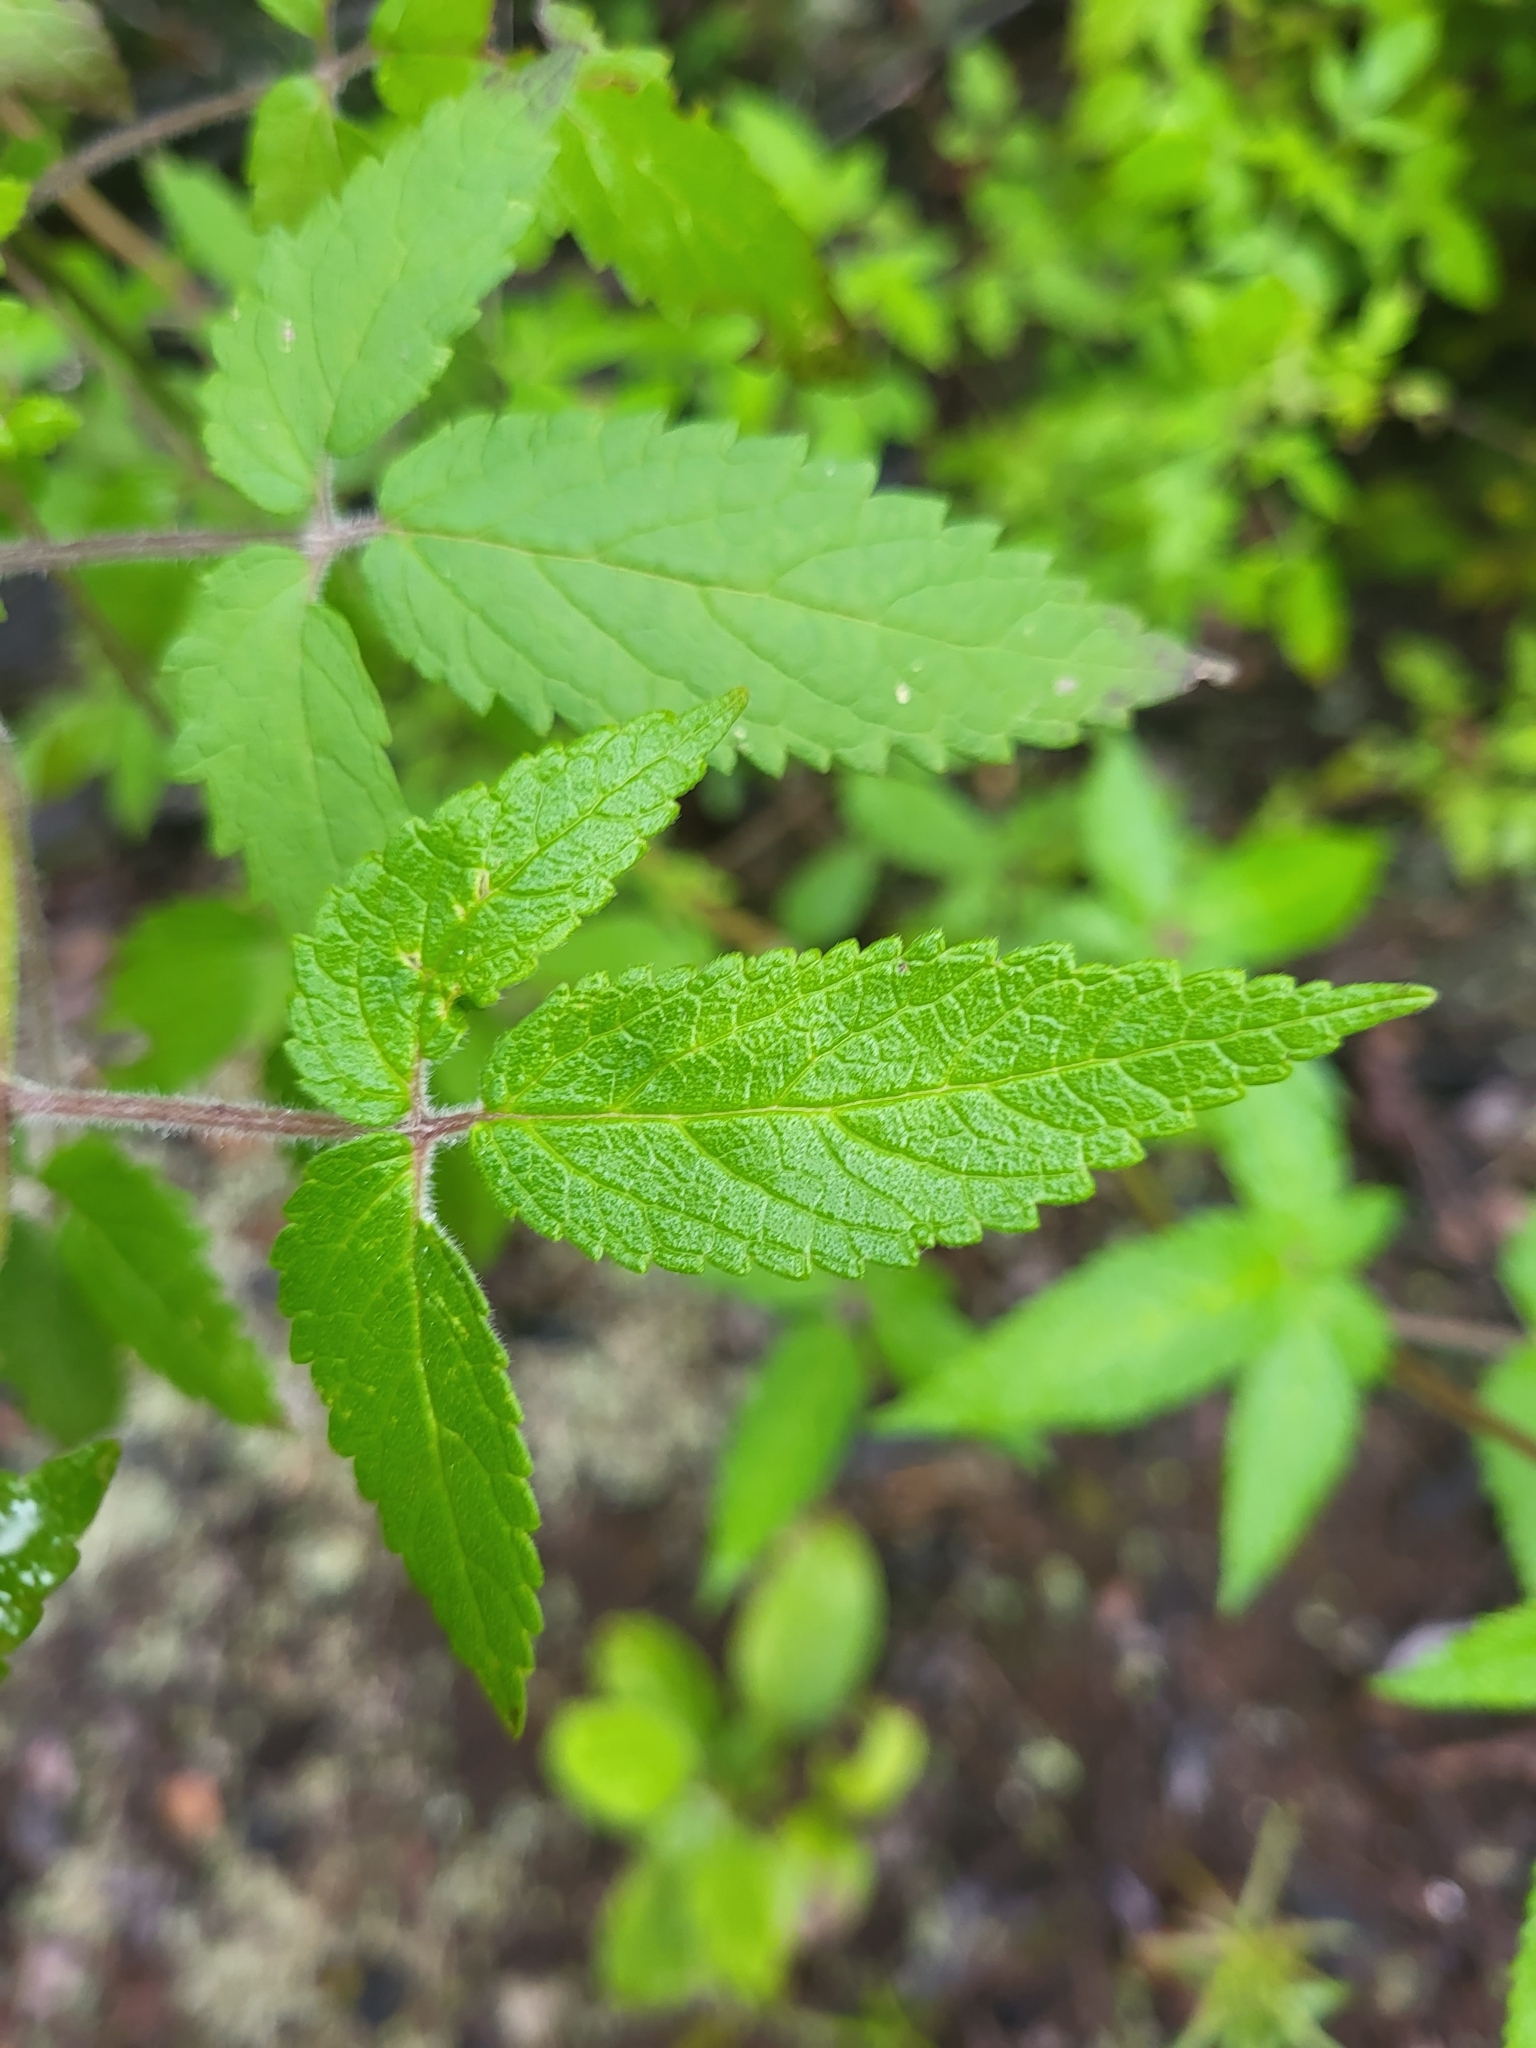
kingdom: Plantae
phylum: Tracheophyta
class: Magnoliopsida
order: Lamiales
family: Lamiaceae
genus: Cedronella
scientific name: Cedronella canariensis
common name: Canary islands balm
